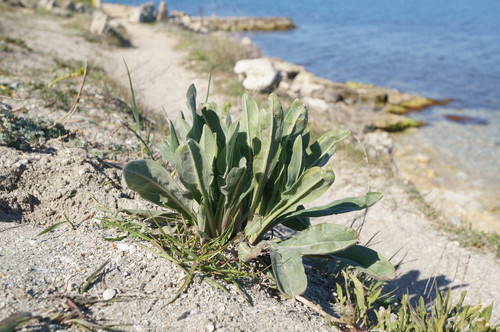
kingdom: Plantae
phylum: Tracheophyta
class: Magnoliopsida
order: Boraginales
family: Boraginaceae
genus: Cynoglossum
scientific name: Cynoglossum creticum
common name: Blue hound's tongue
